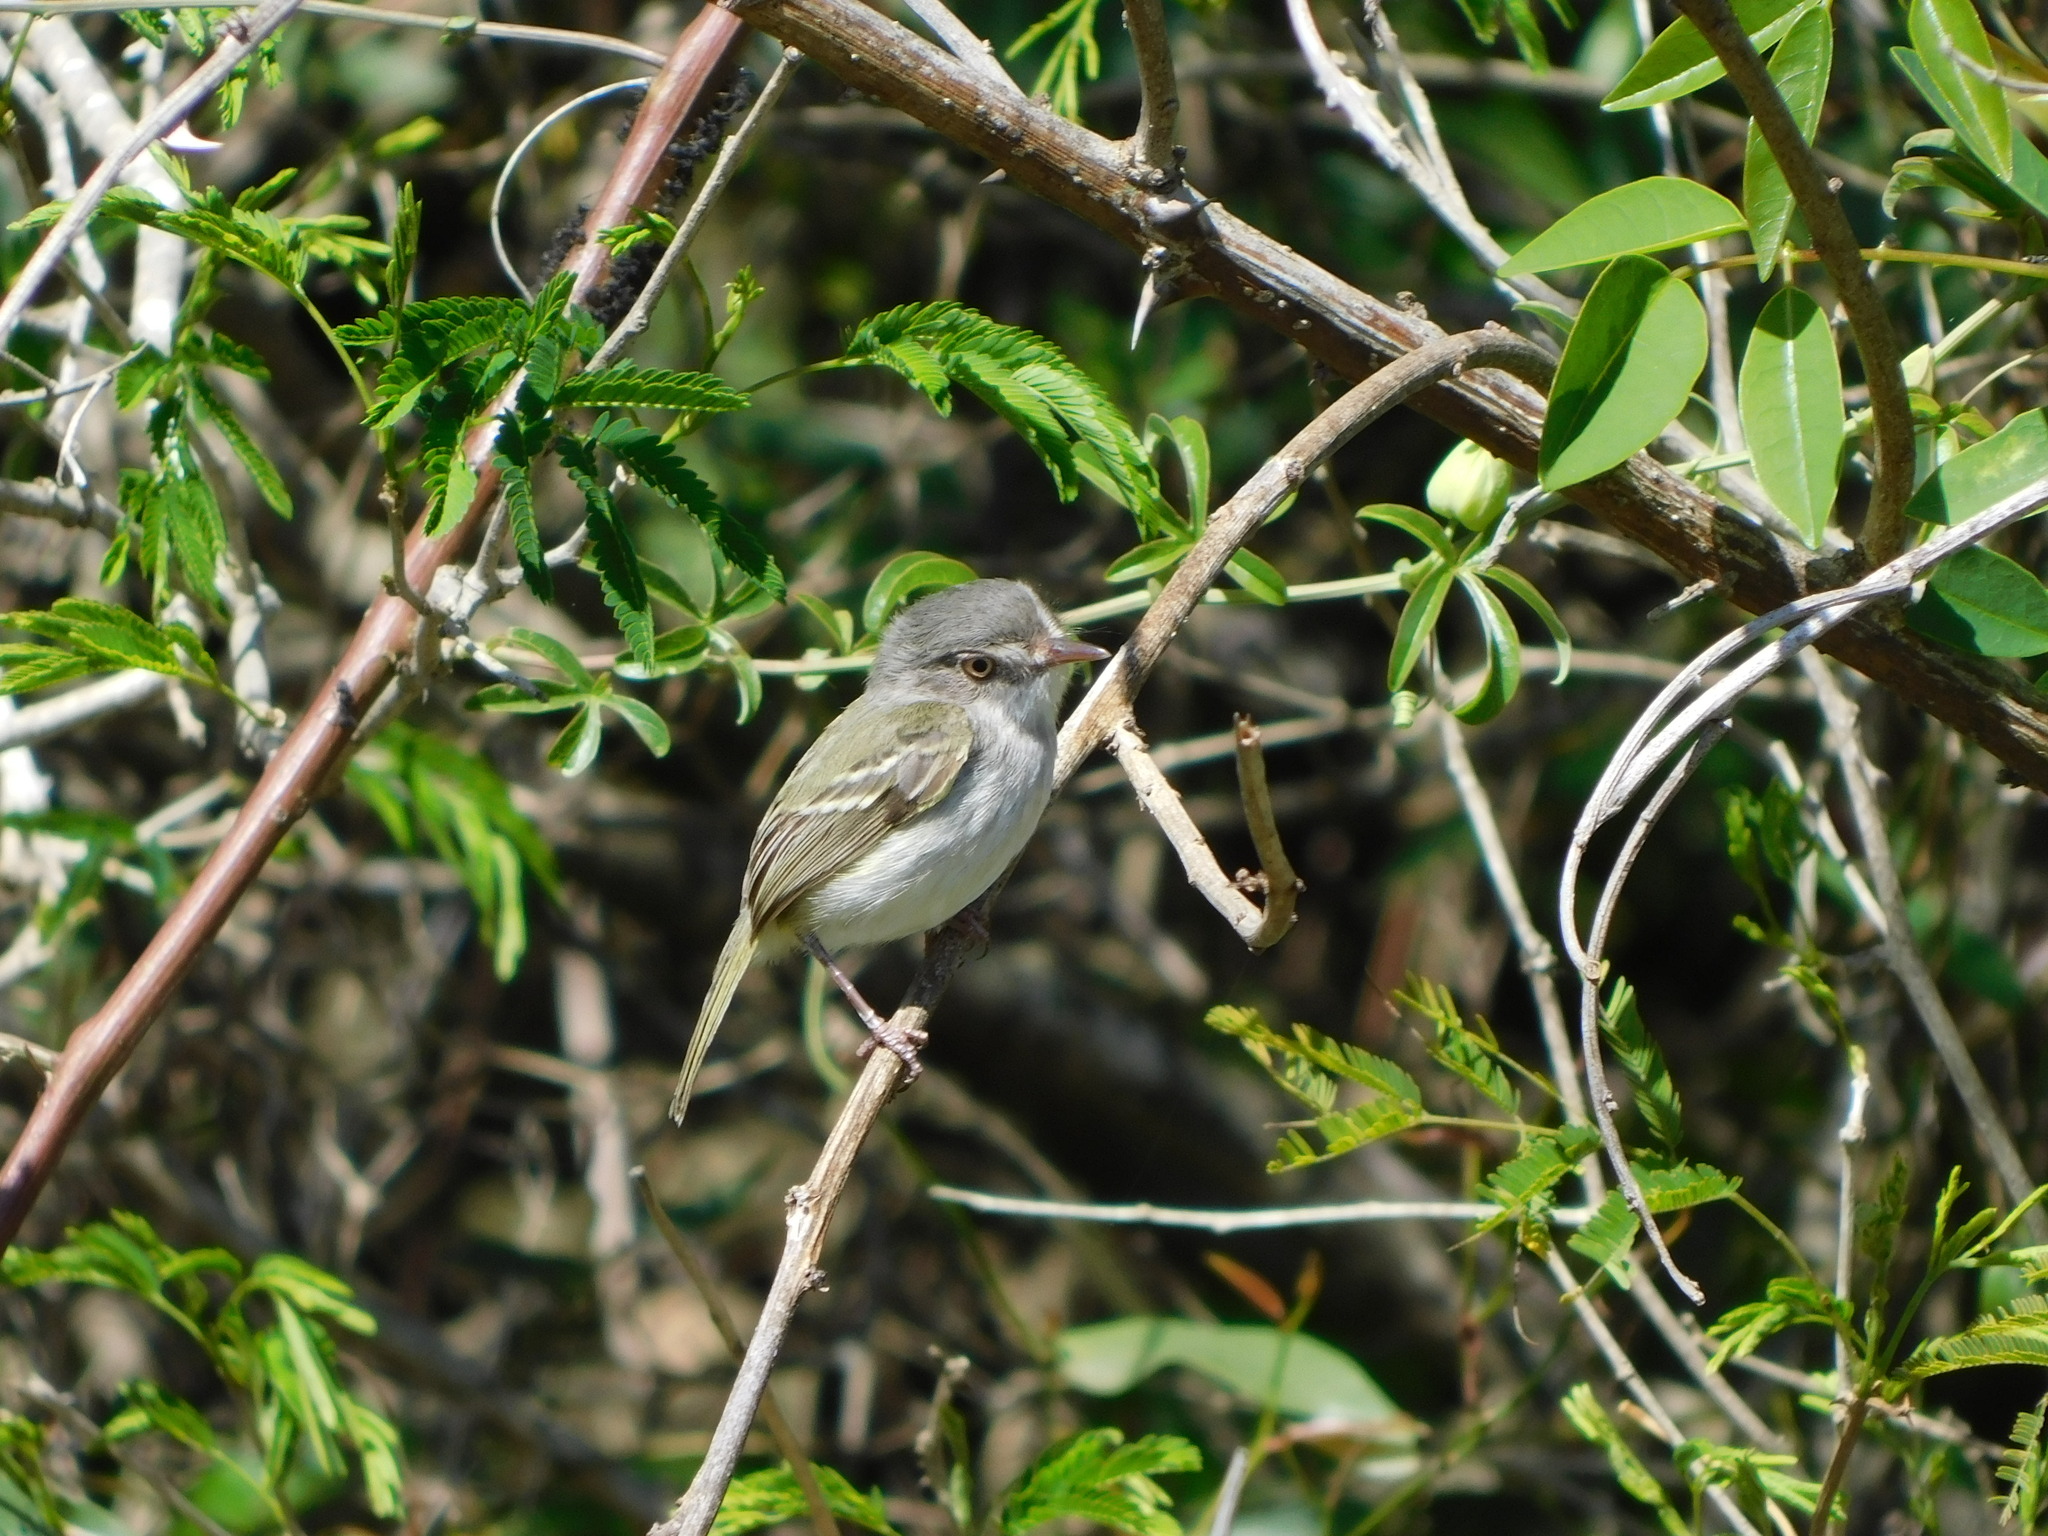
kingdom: Animalia
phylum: Chordata
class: Aves
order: Passeriformes
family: Tyrannidae
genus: Hemitriccus
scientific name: Hemitriccus margaritaceiventer
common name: Pearly-vented tody-tyrant
